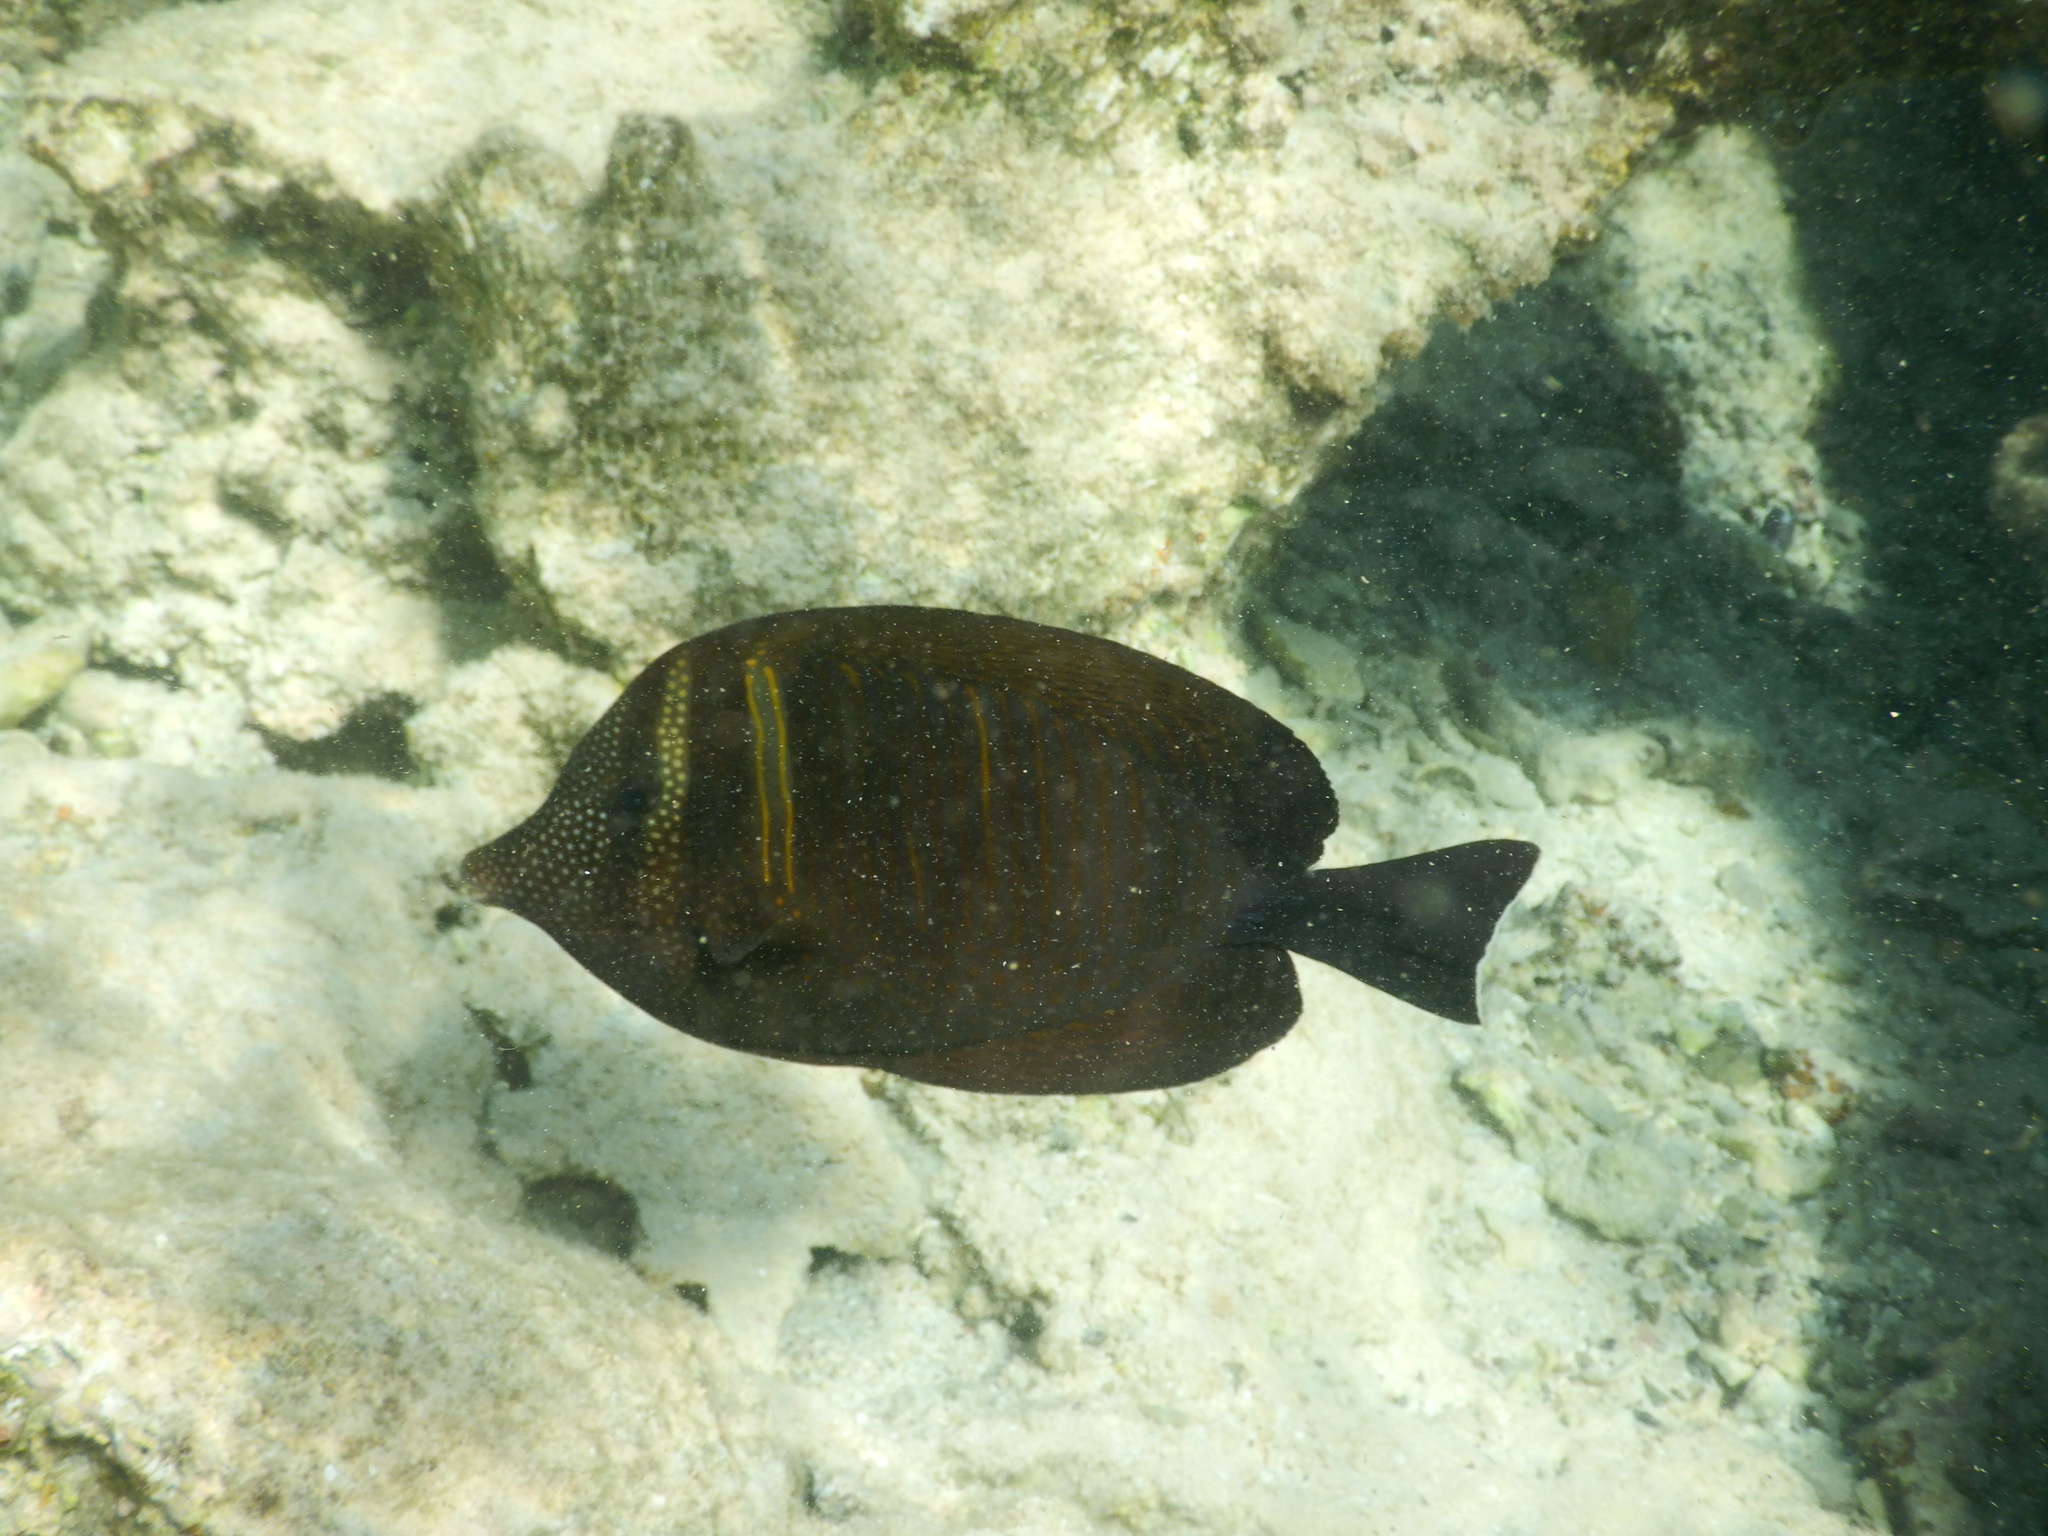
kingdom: Animalia
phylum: Chordata
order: Perciformes
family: Acanthuridae
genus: Zebrasoma
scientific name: Zebrasoma desjardinii
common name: Desjardin's sailfin tang
